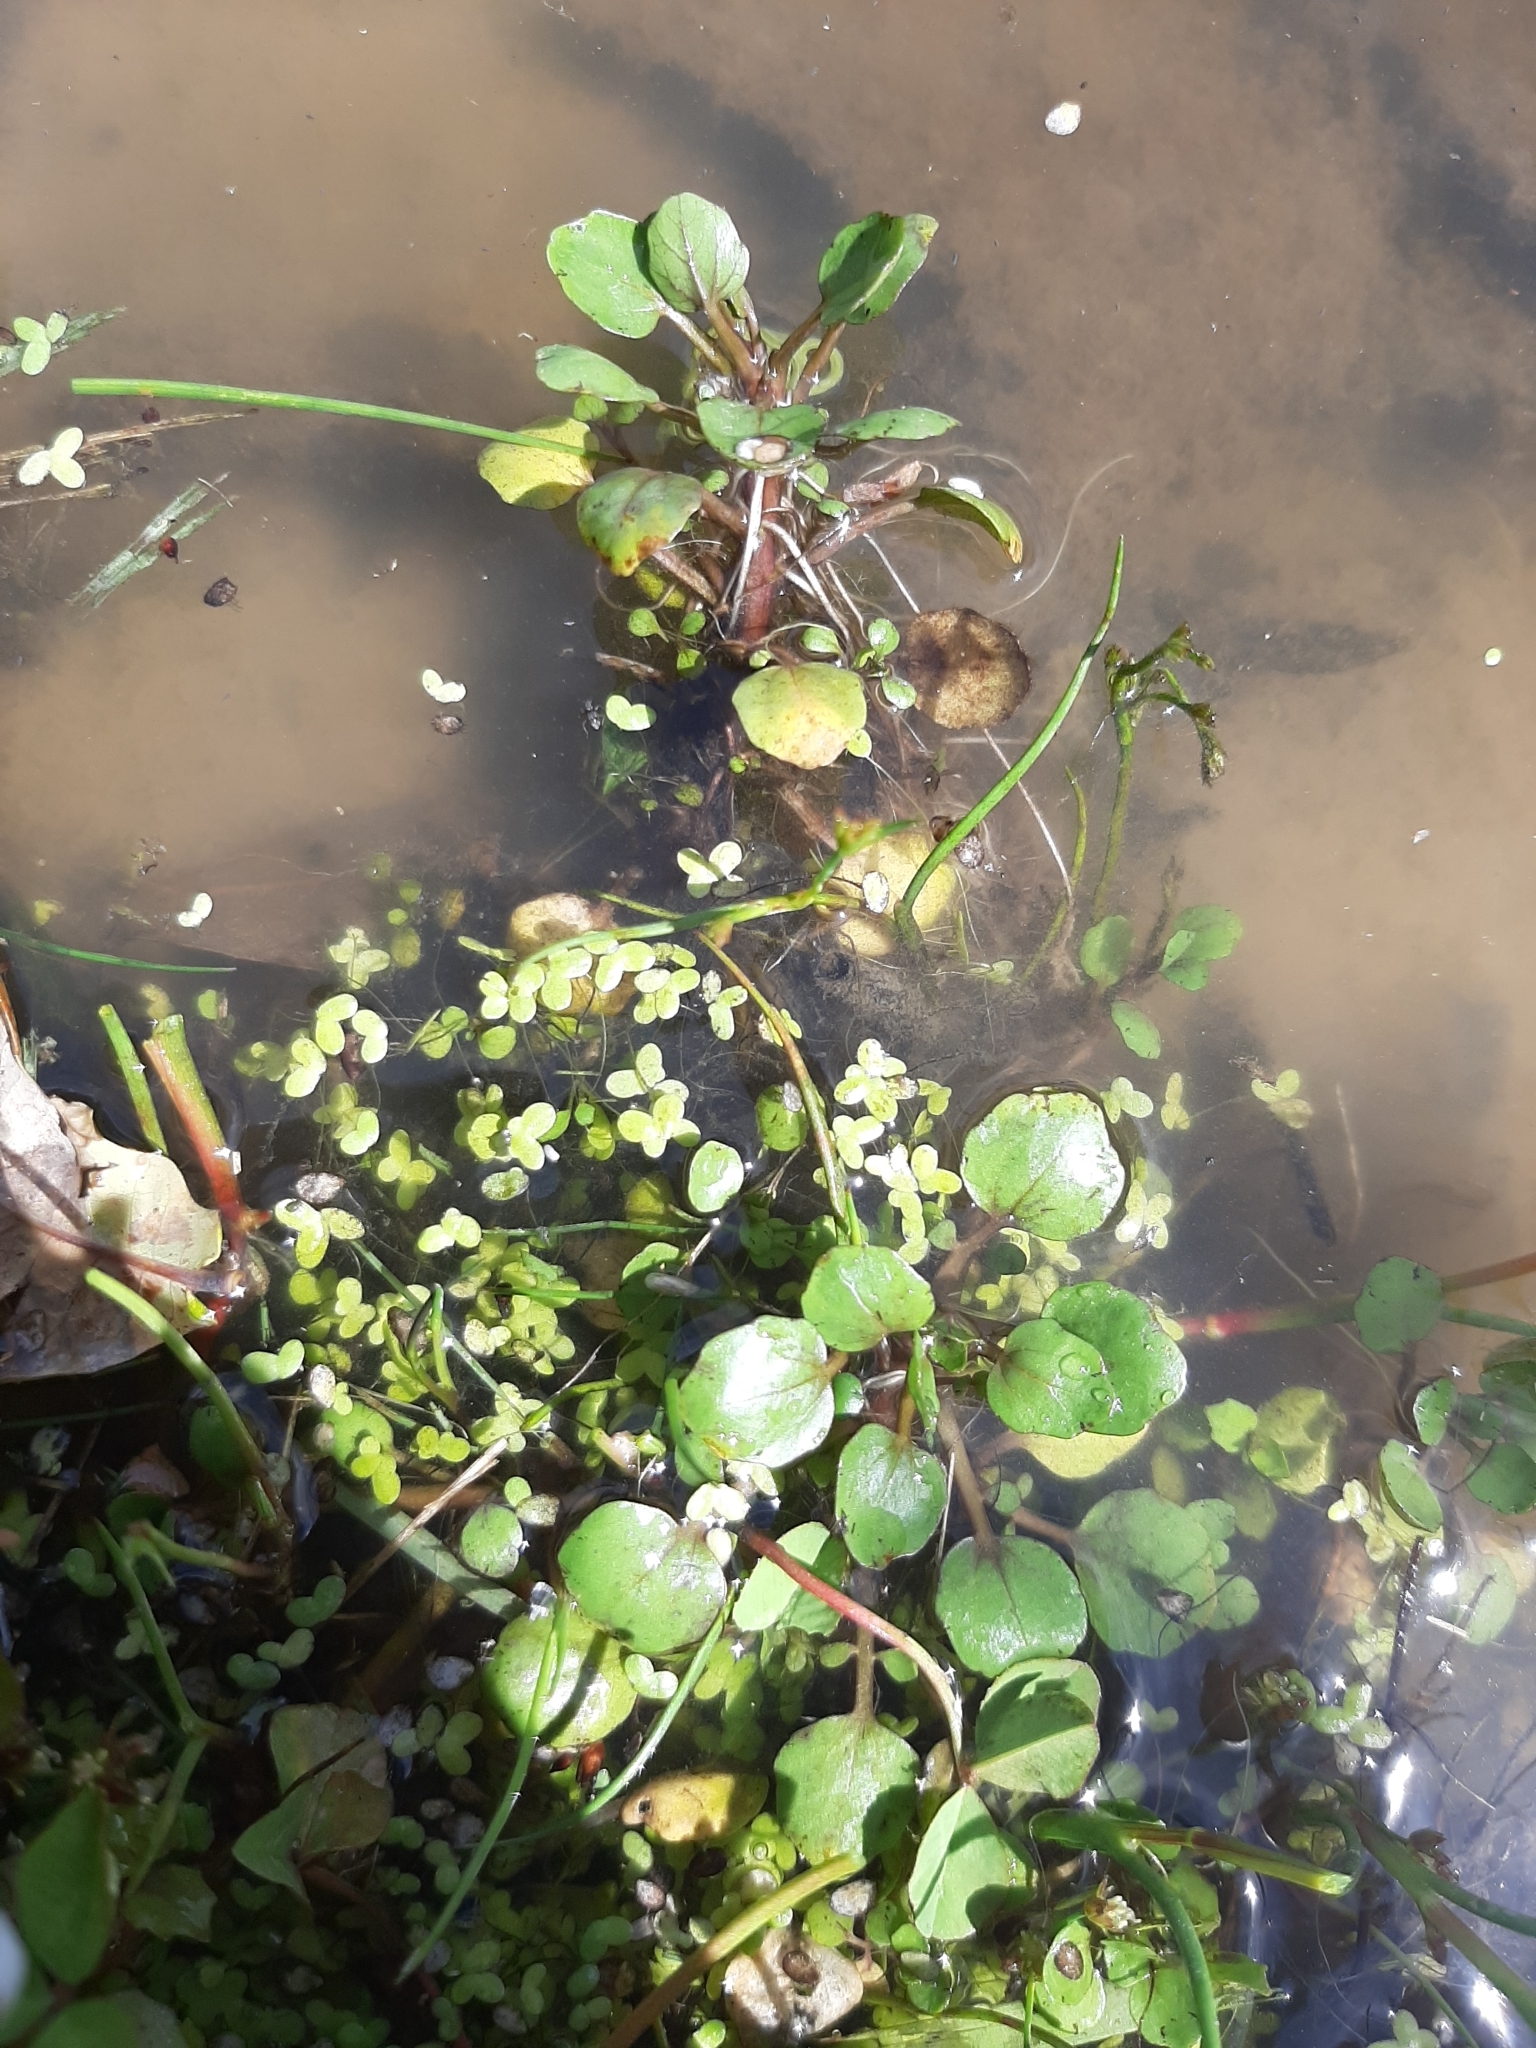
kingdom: Plantae
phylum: Tracheophyta
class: Magnoliopsida
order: Brassicales
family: Brassicaceae
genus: Nasturtium
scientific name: Nasturtium officinale
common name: Watercress
